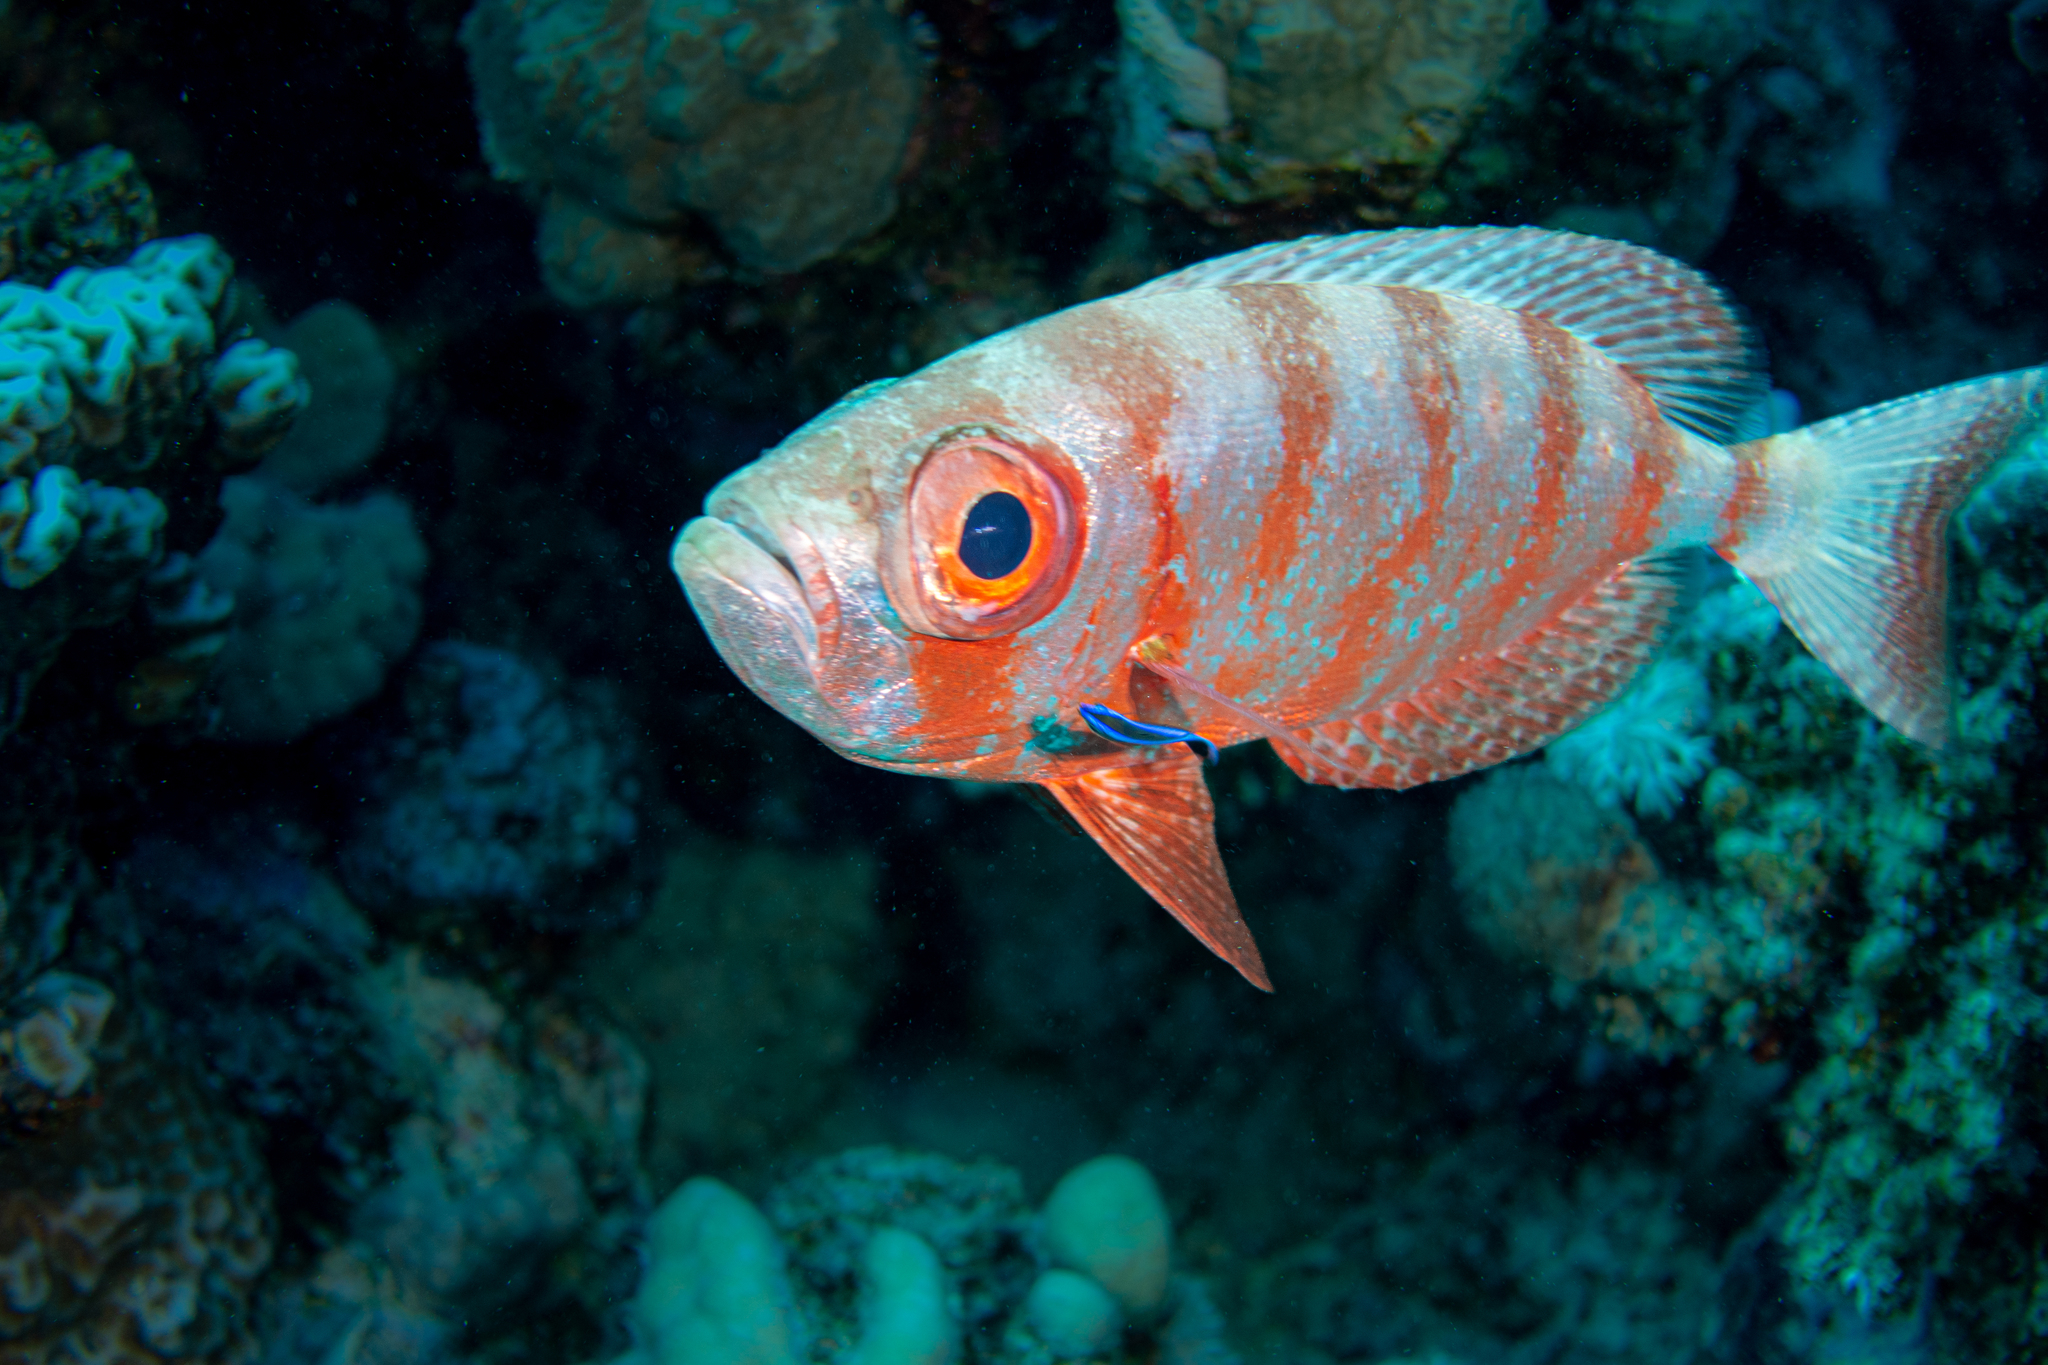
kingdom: Animalia
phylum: Chordata
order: Perciformes
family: Priacanthidae
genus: Priacanthus
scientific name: Priacanthus hamrur
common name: Moontail bullseye
